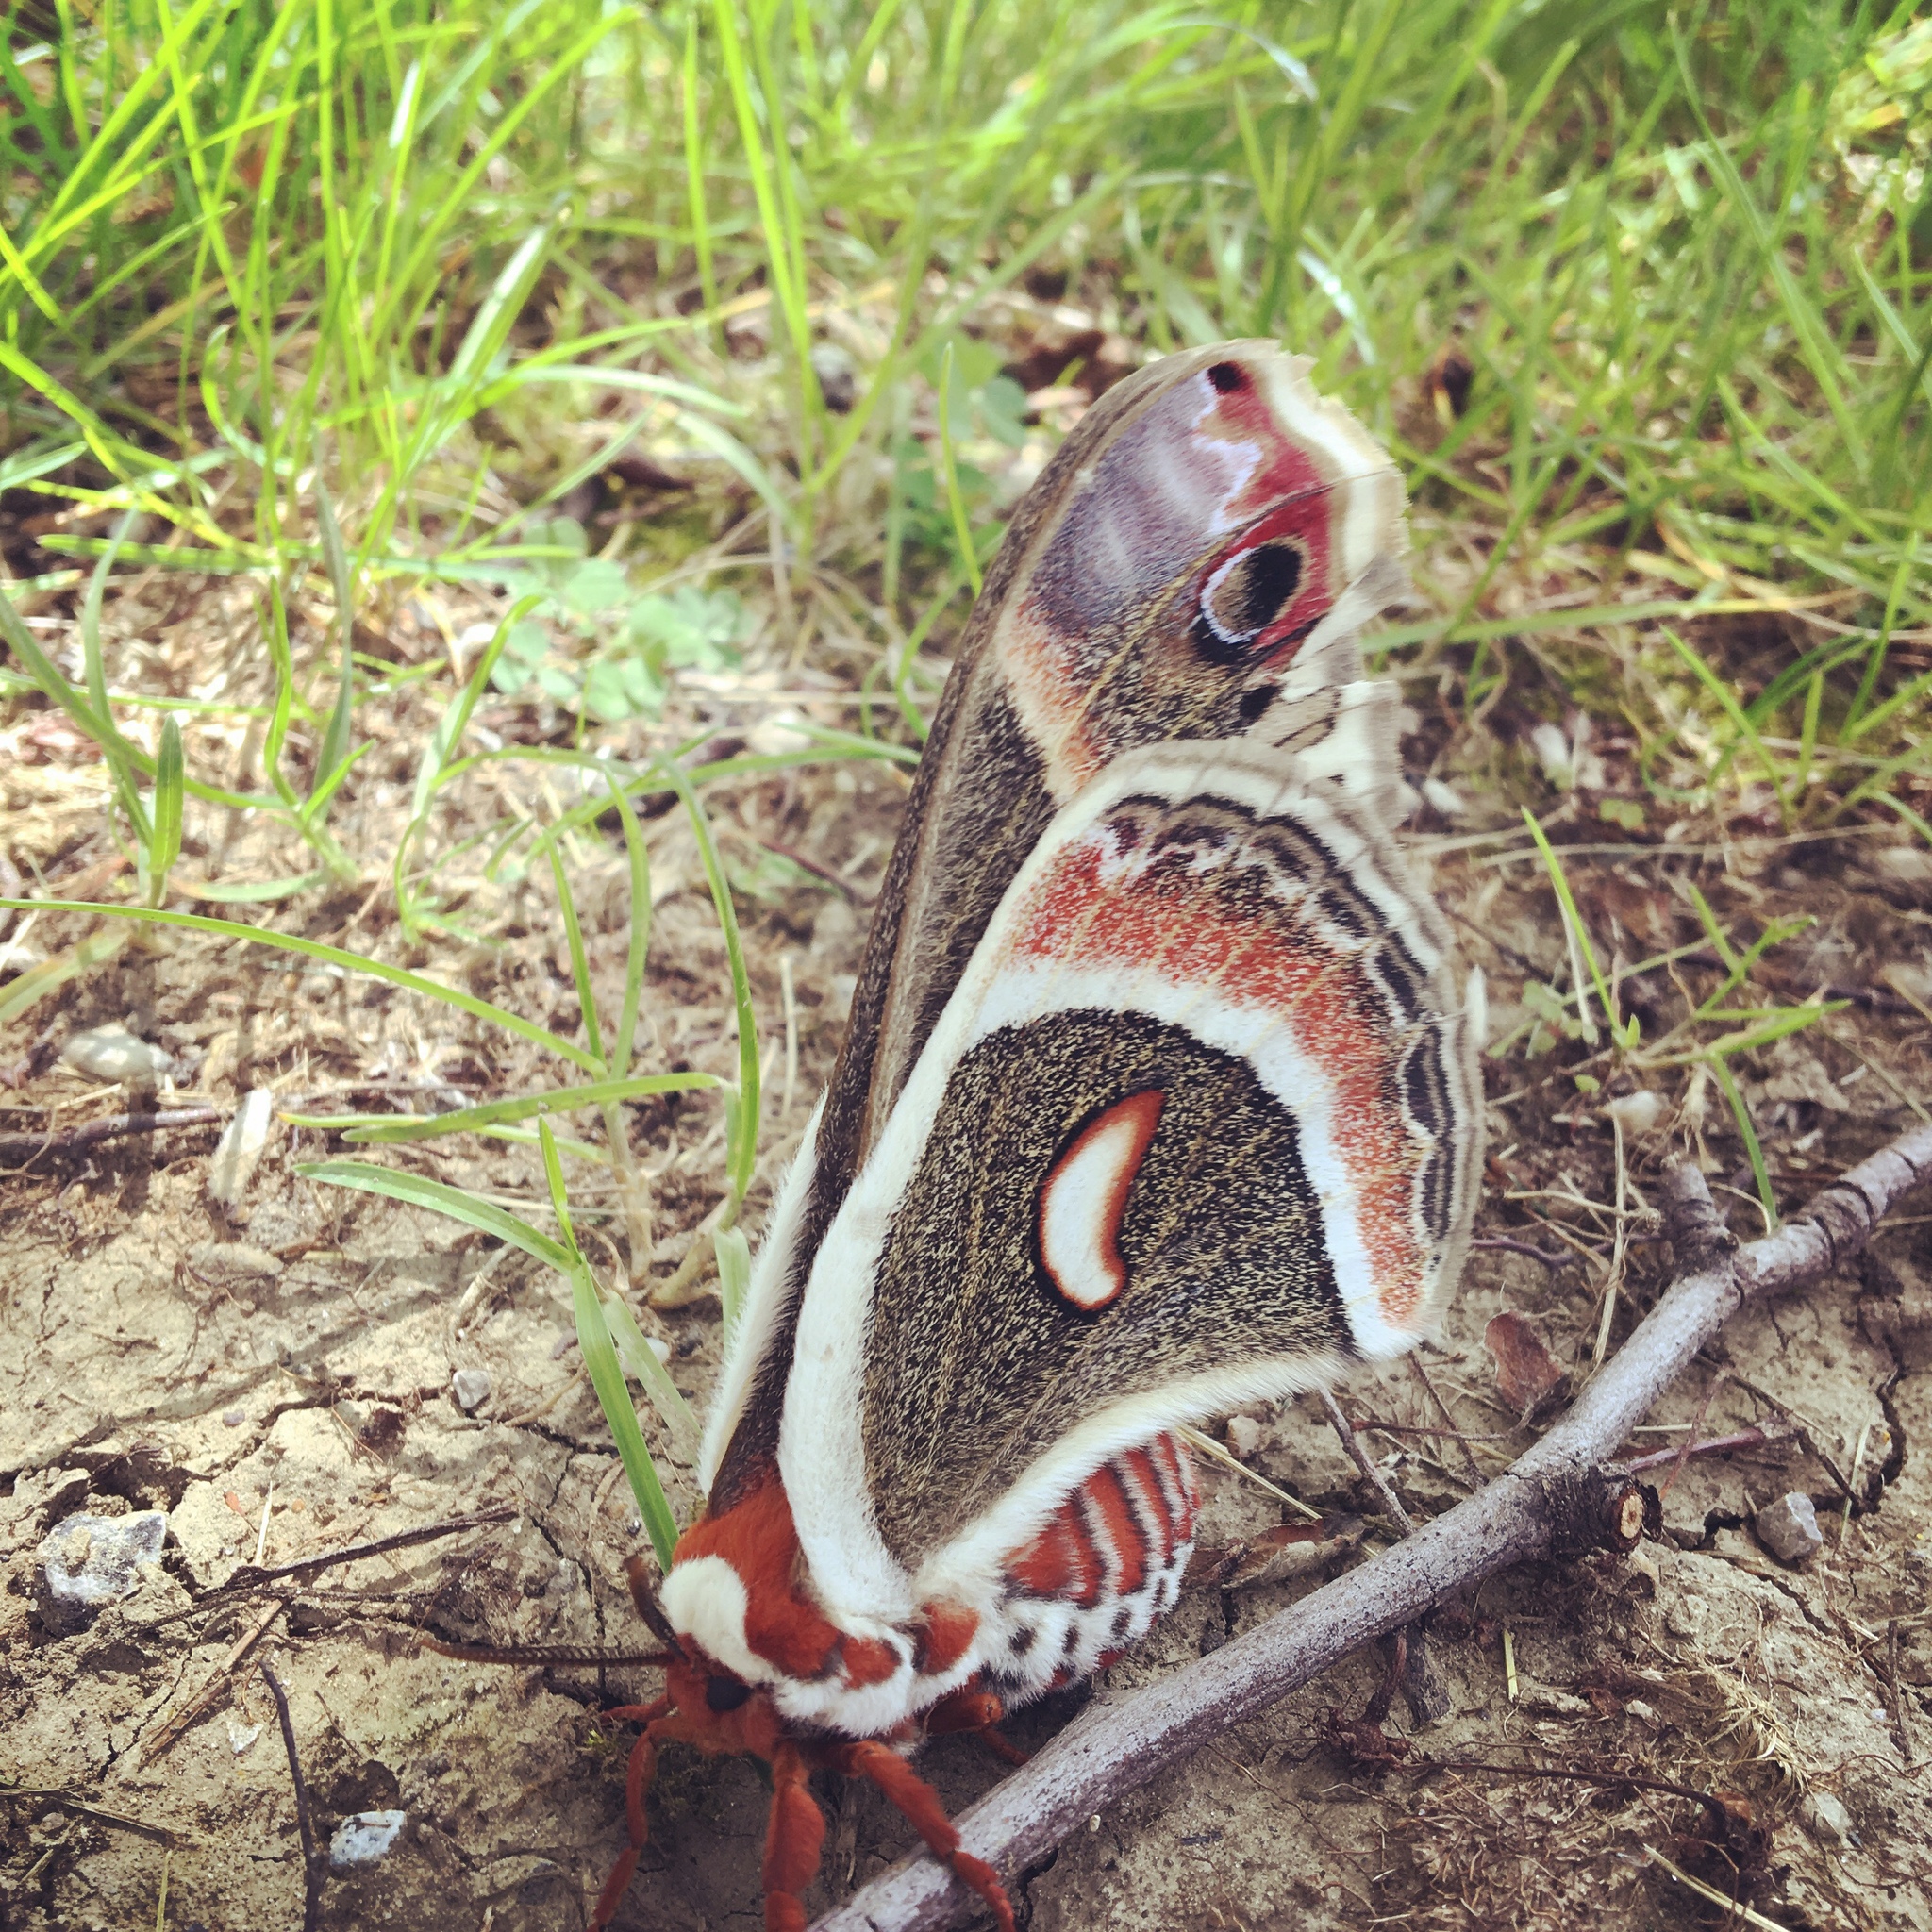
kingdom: Animalia
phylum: Arthropoda
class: Insecta
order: Lepidoptera
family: Saturniidae
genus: Hyalophora
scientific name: Hyalophora cecropia
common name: Cecropia silkmoth
